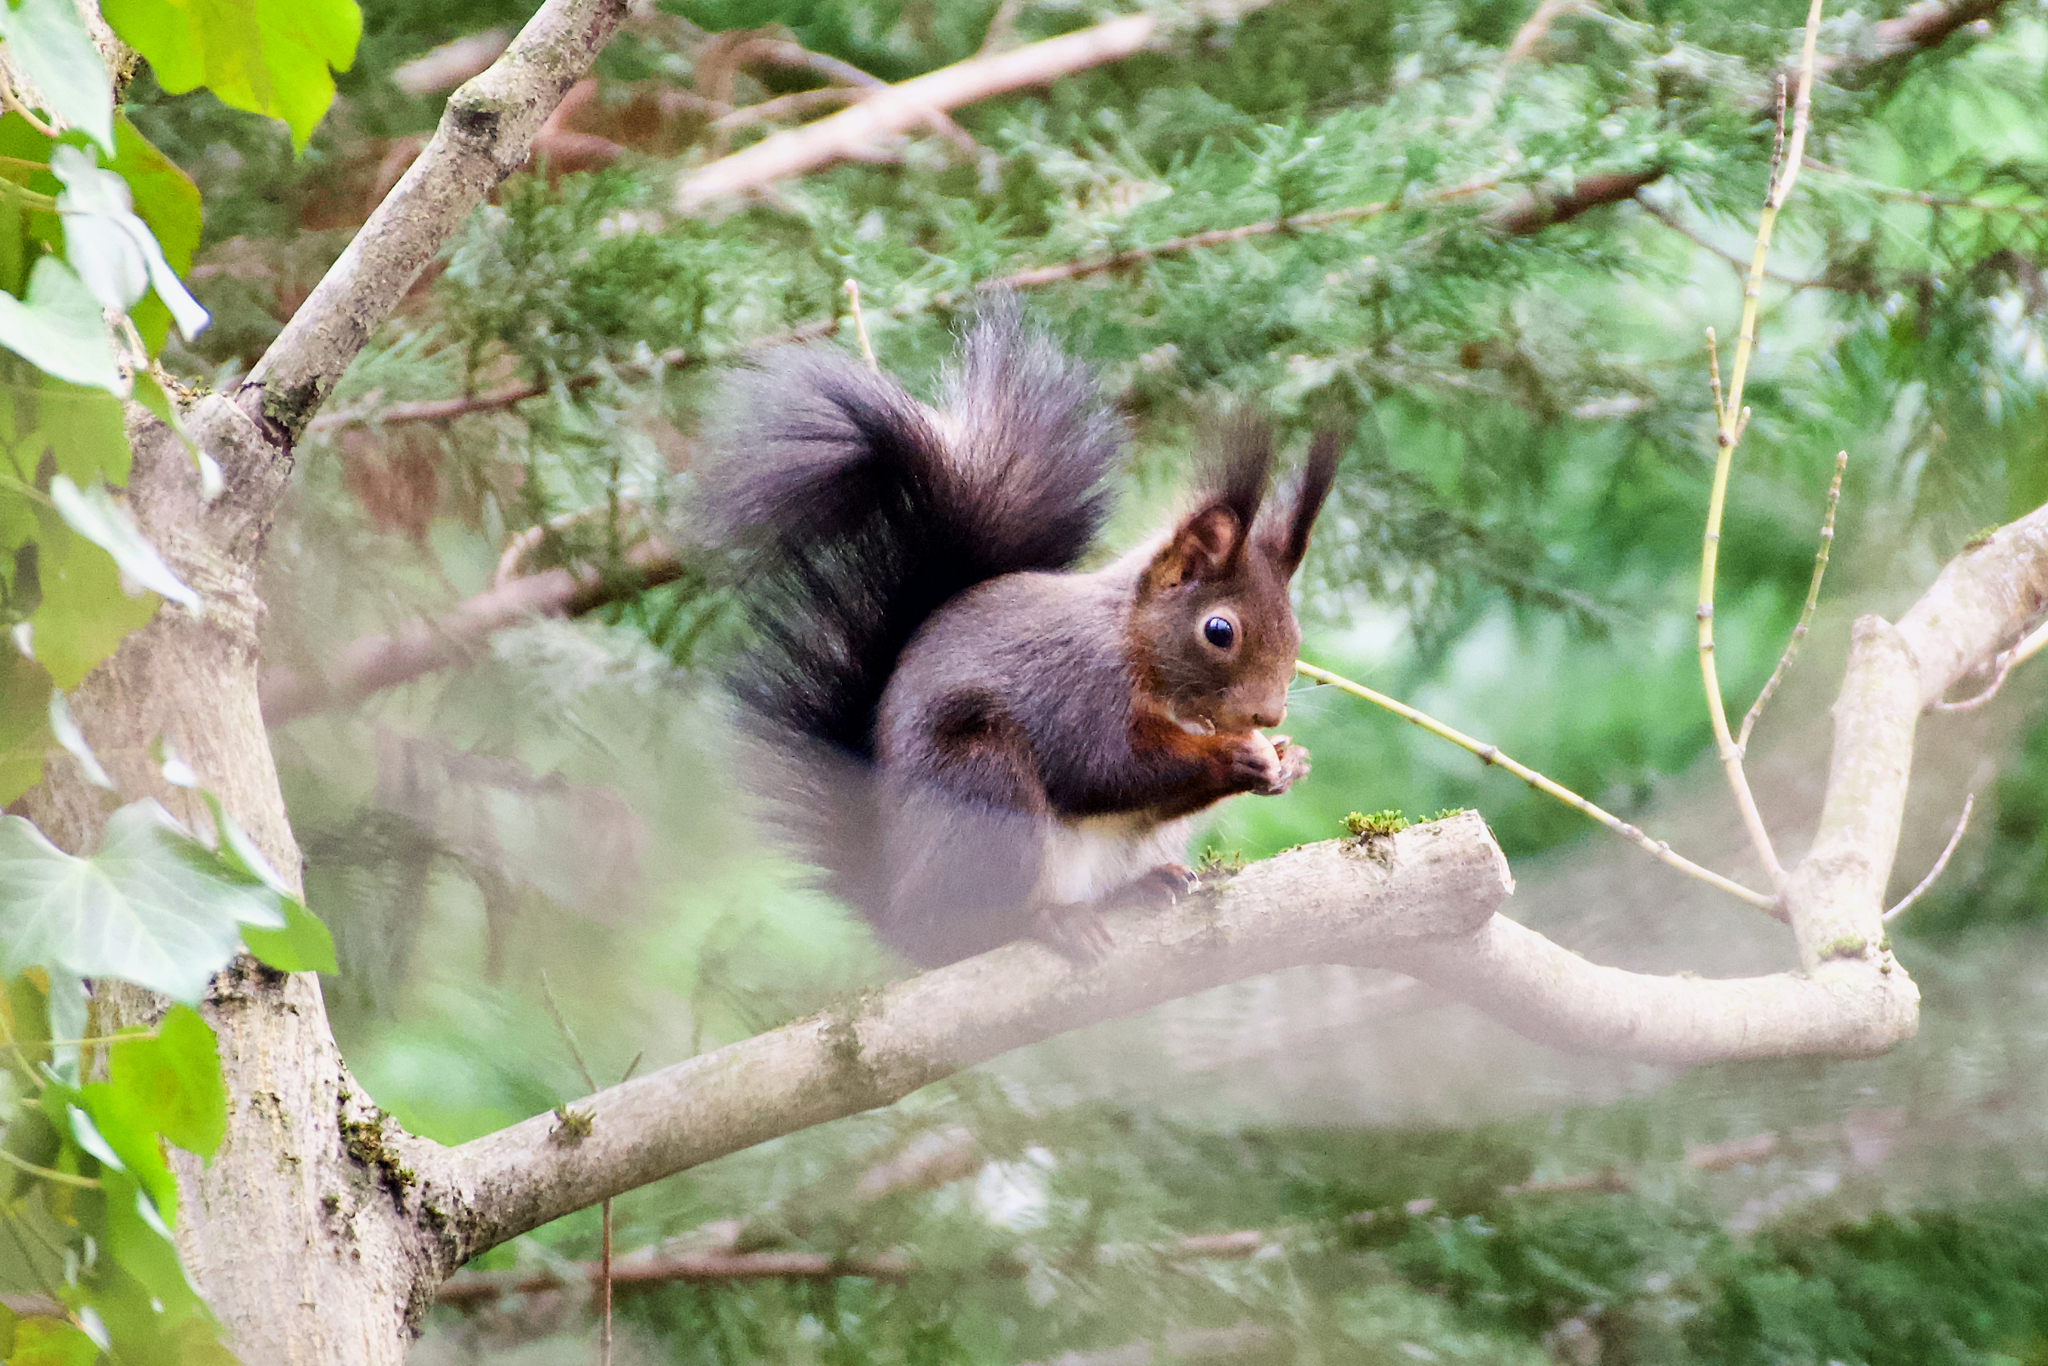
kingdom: Animalia
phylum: Chordata
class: Mammalia
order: Rodentia
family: Sciuridae
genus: Sciurus
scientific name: Sciurus vulgaris
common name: Eurasian red squirrel
